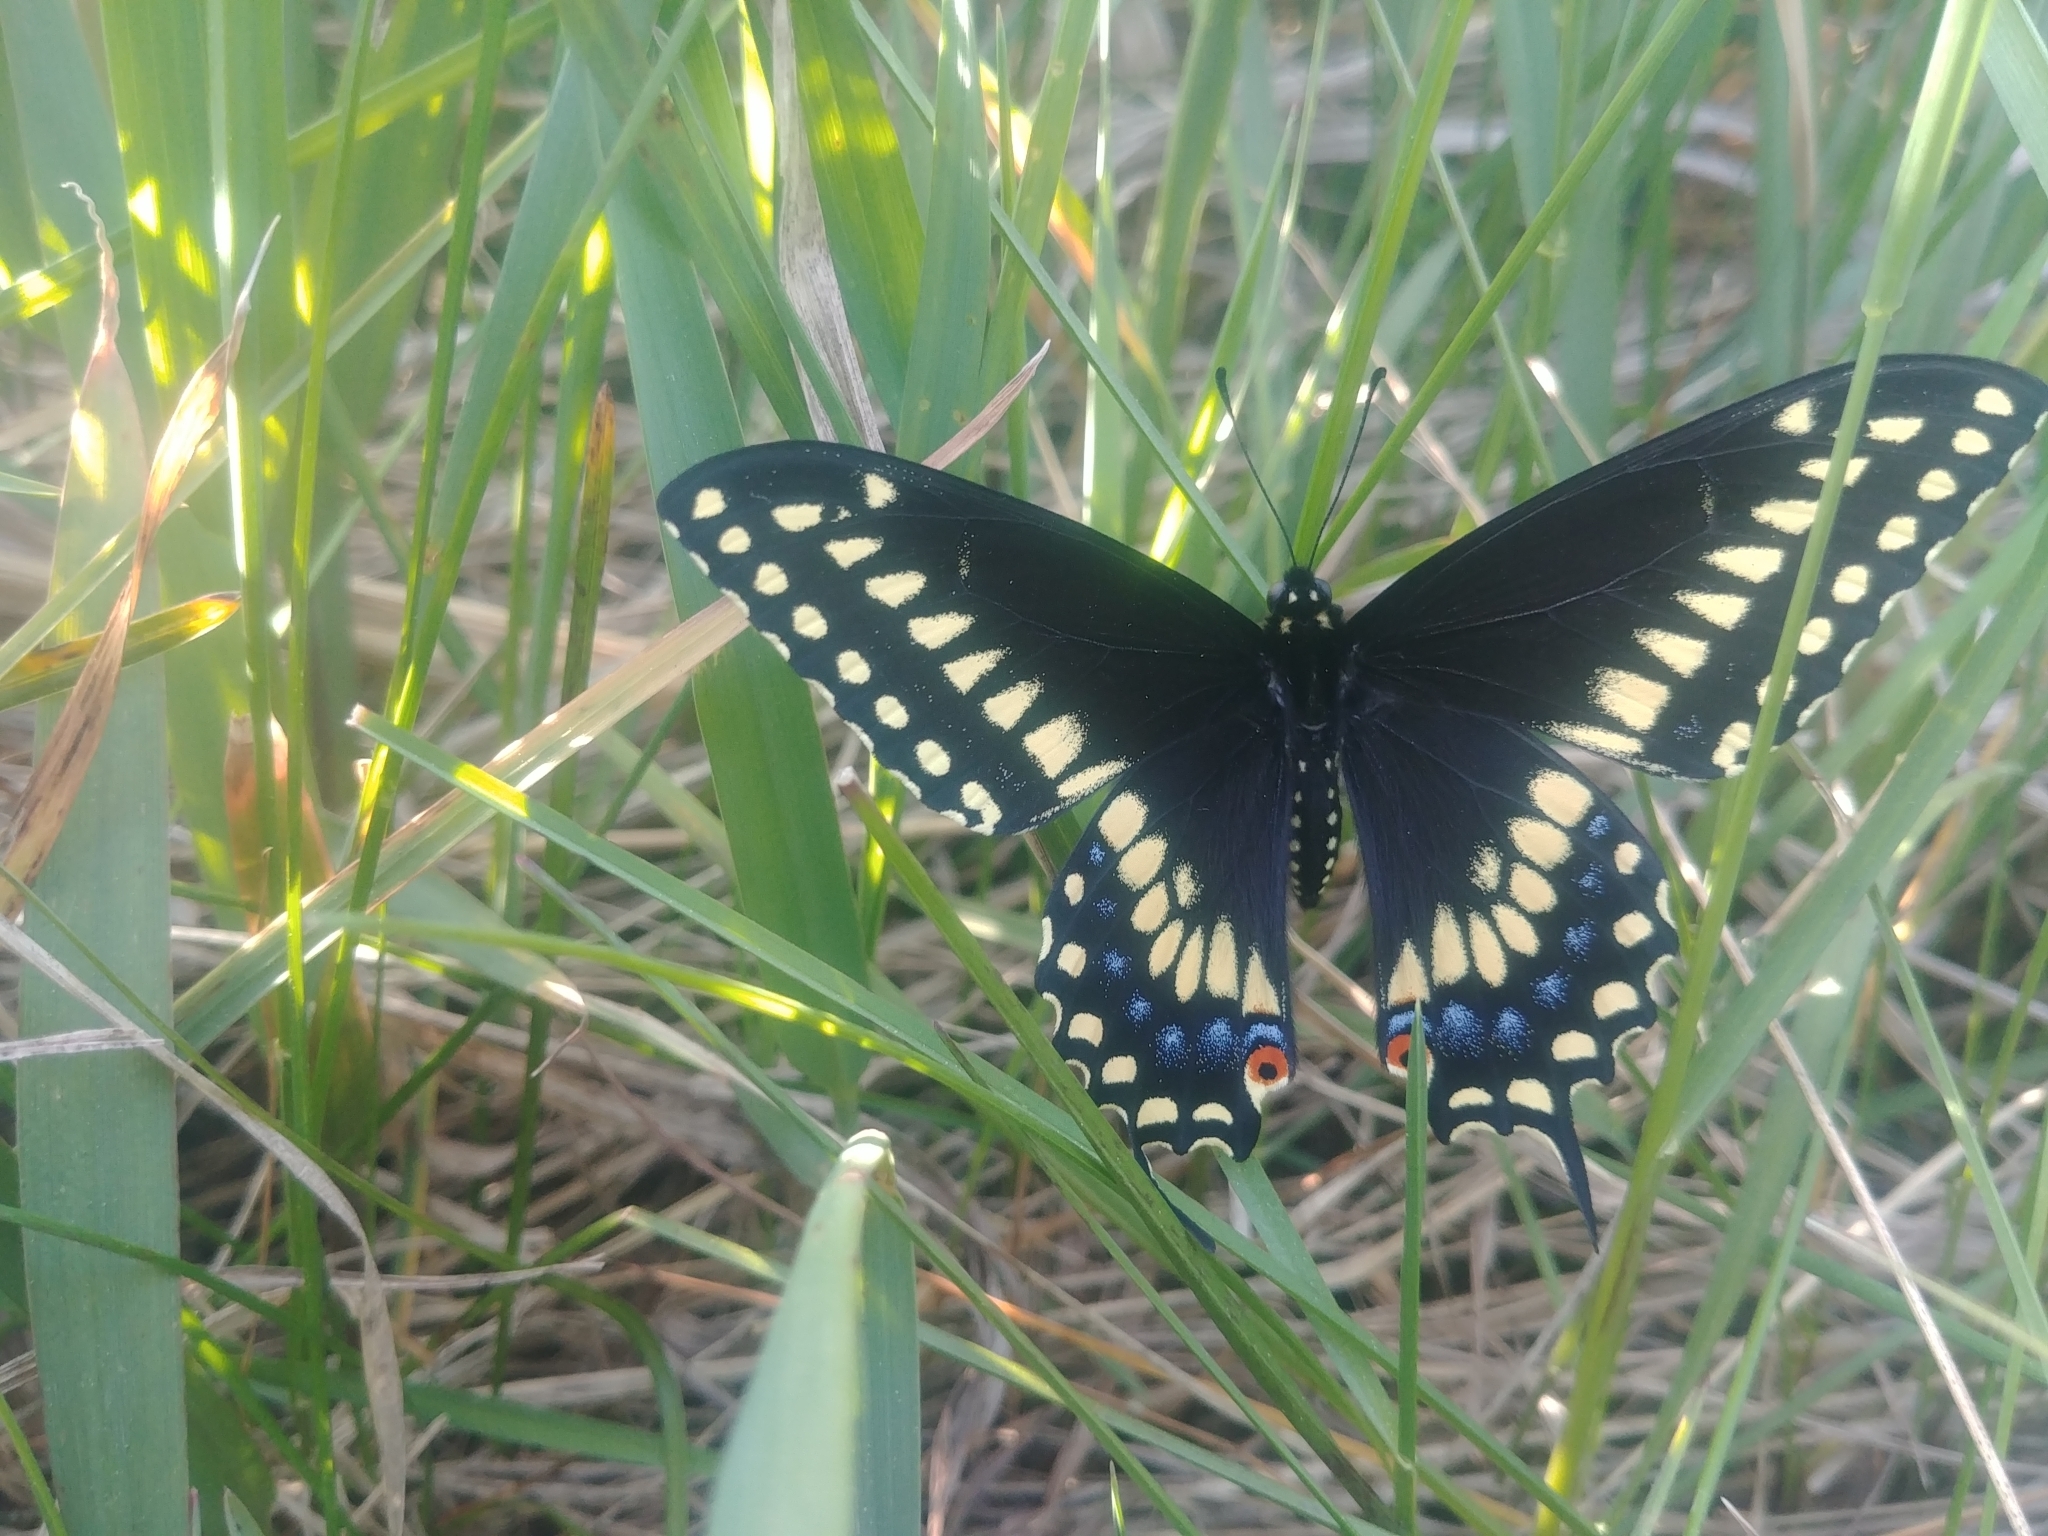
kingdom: Animalia
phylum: Arthropoda
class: Insecta
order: Lepidoptera
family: Papilionidae
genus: Papilio
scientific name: Papilio polyxenes
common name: Black swallowtail
